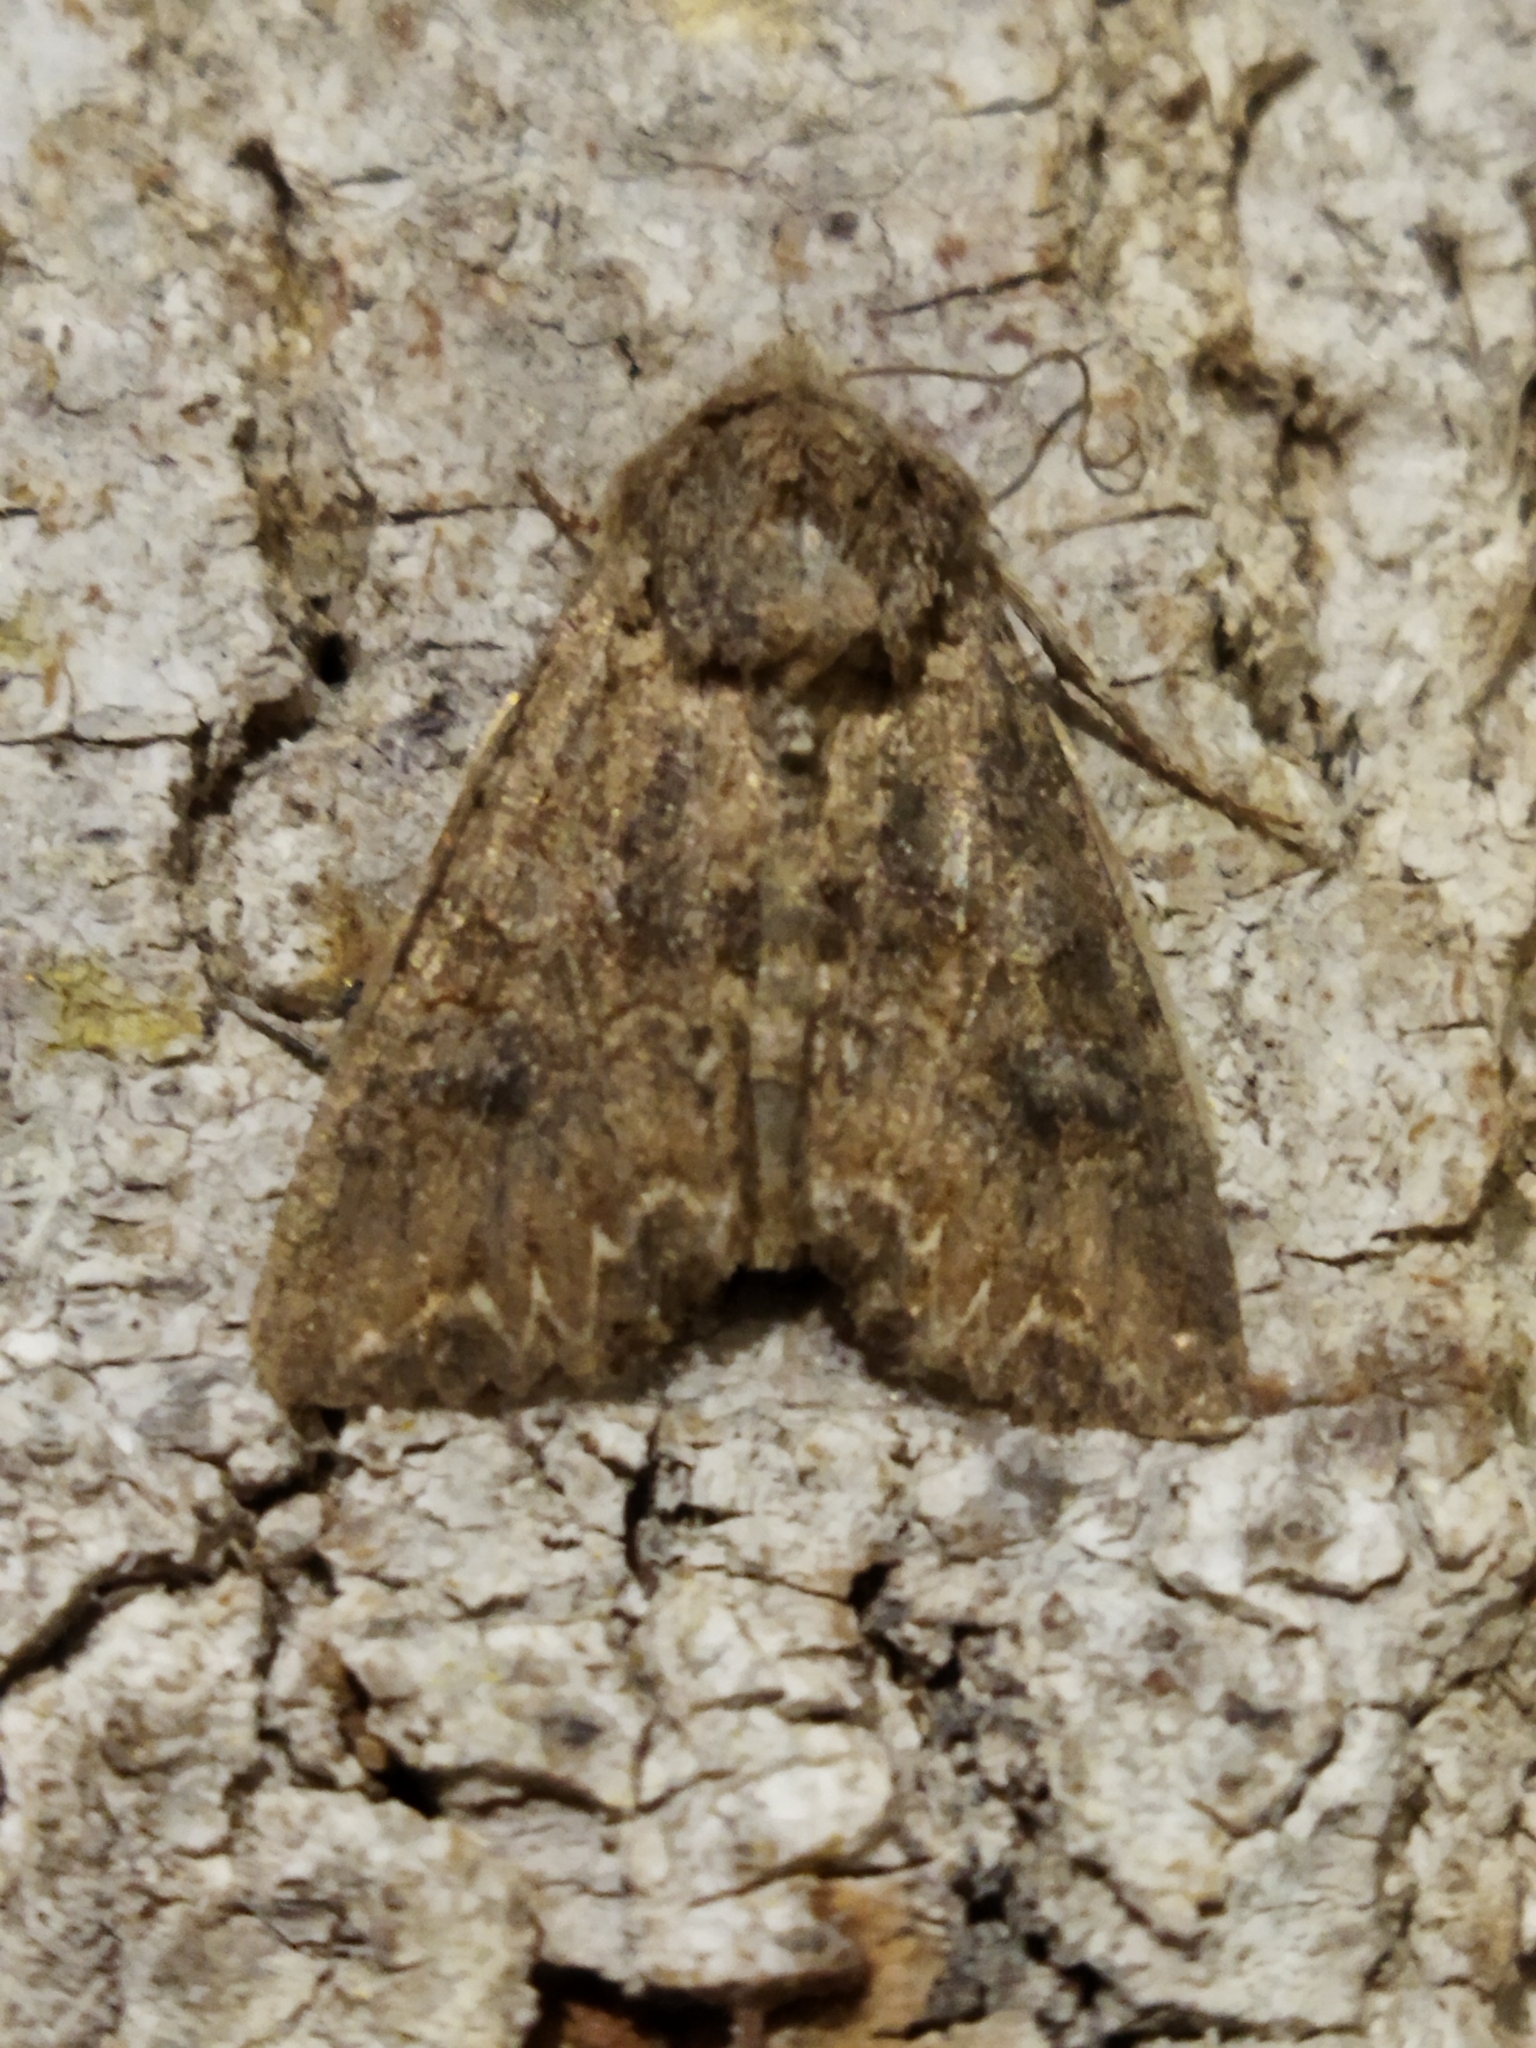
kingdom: Animalia
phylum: Arthropoda
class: Insecta
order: Lepidoptera
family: Noctuidae
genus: Anarta
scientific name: Anarta
